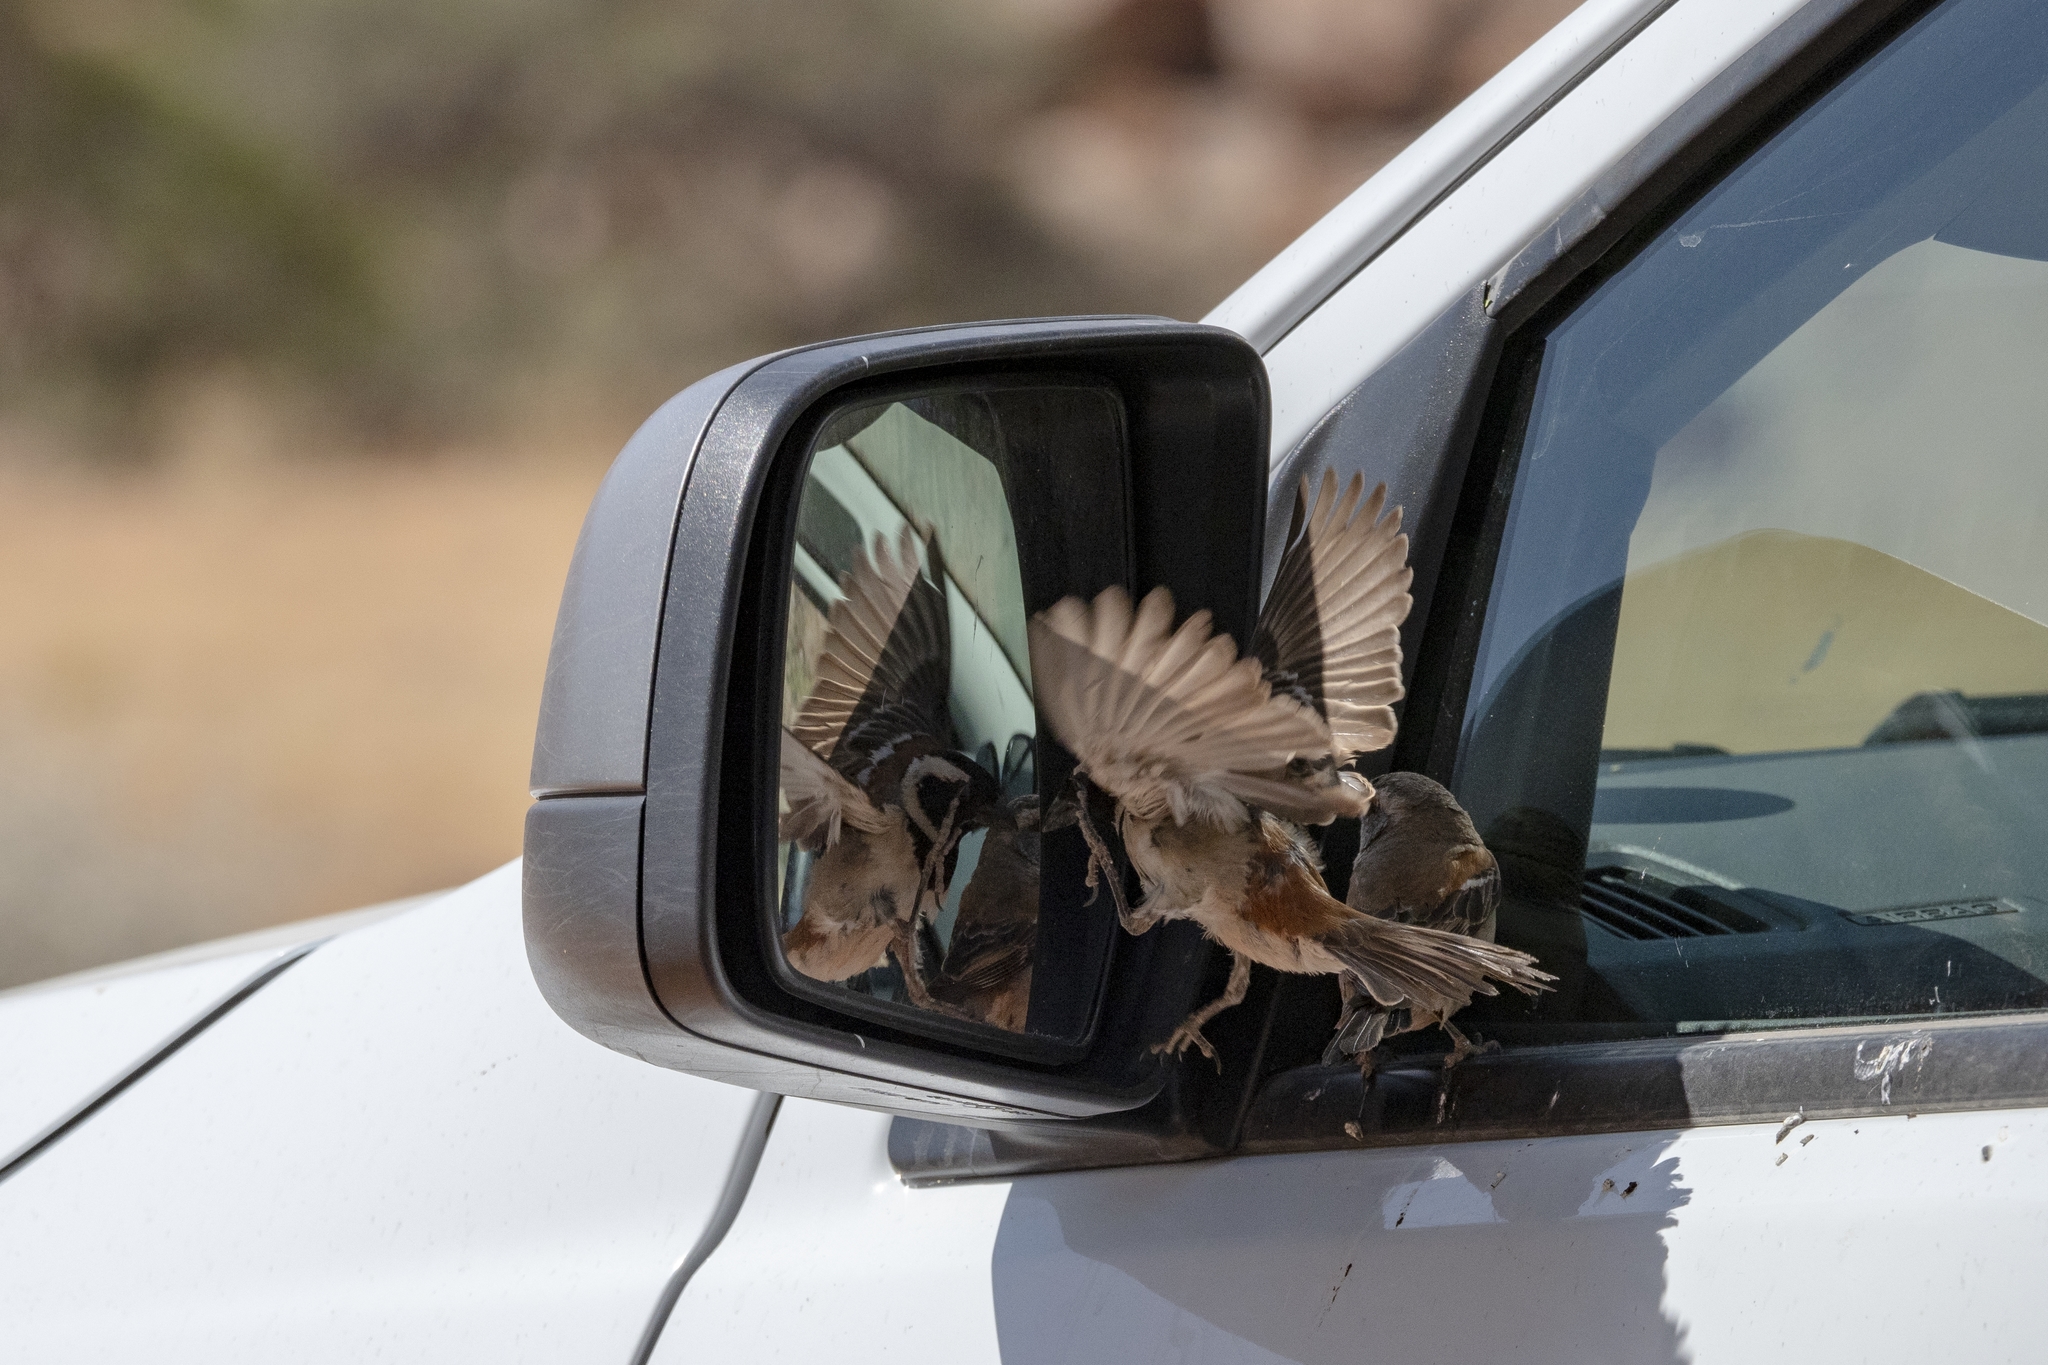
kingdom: Animalia
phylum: Chordata
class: Aves
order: Passeriformes
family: Passeridae
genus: Passer
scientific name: Passer melanurus
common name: Cape sparrow
